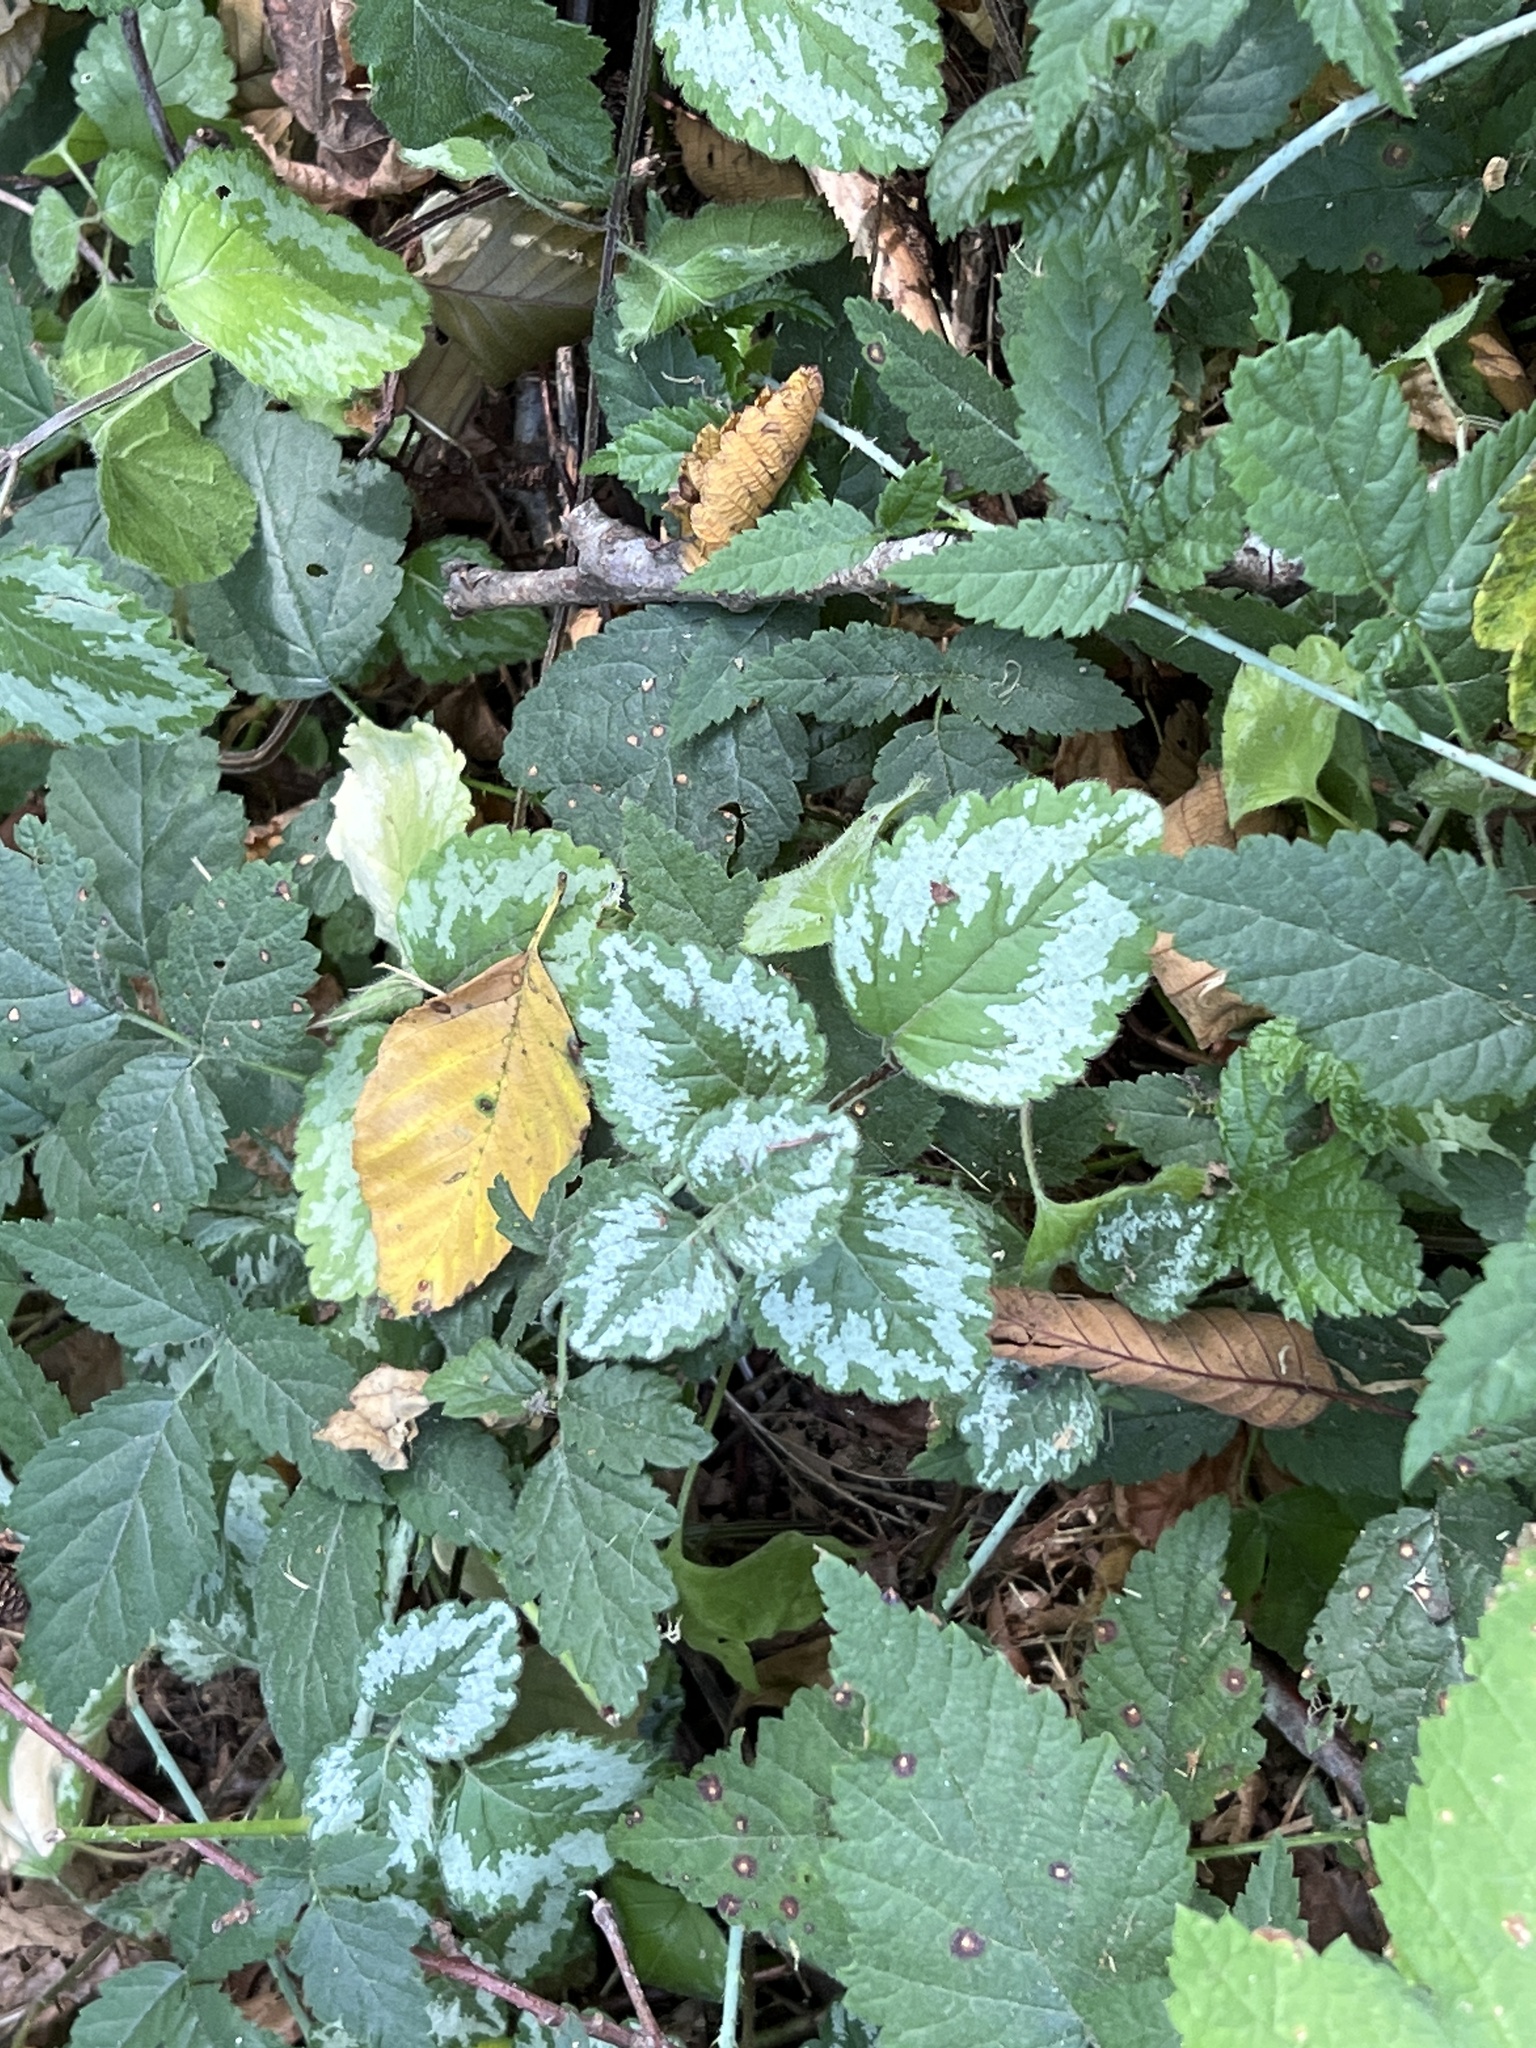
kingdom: Plantae
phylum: Tracheophyta
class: Magnoliopsida
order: Lamiales
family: Lamiaceae
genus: Lamium
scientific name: Lamium galeobdolon
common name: Yellow archangel
